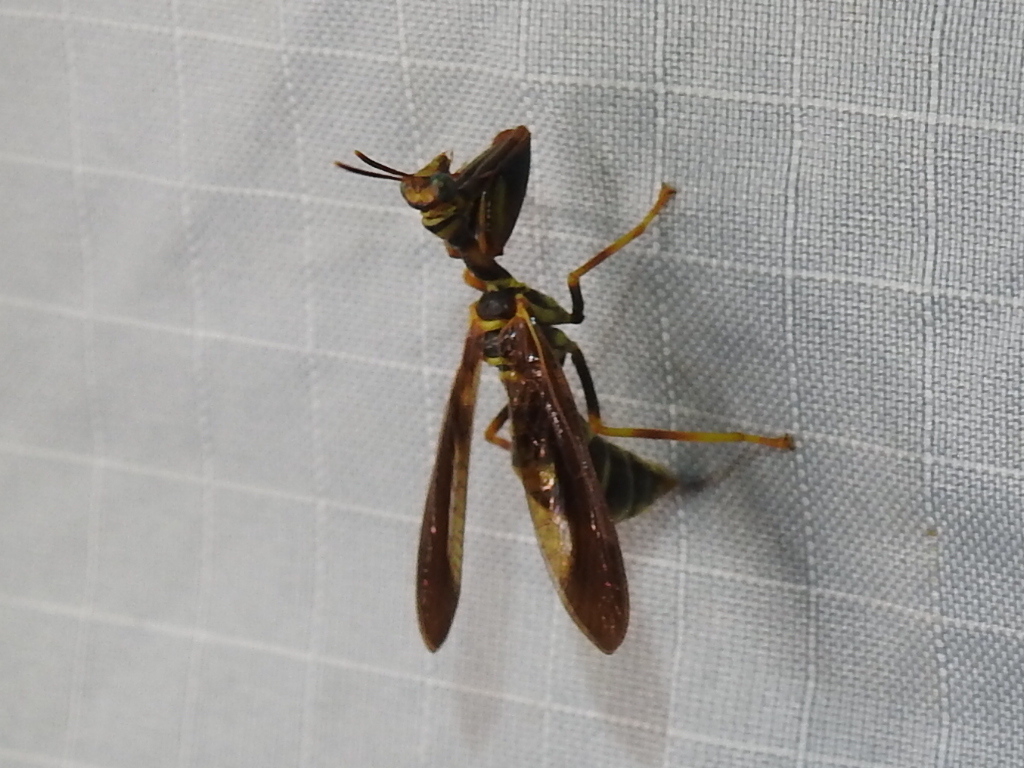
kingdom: Animalia
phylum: Arthropoda
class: Insecta
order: Neuroptera
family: Mantispidae
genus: Climaciella
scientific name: Climaciella brunnea
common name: Brown wasp mantidfly
